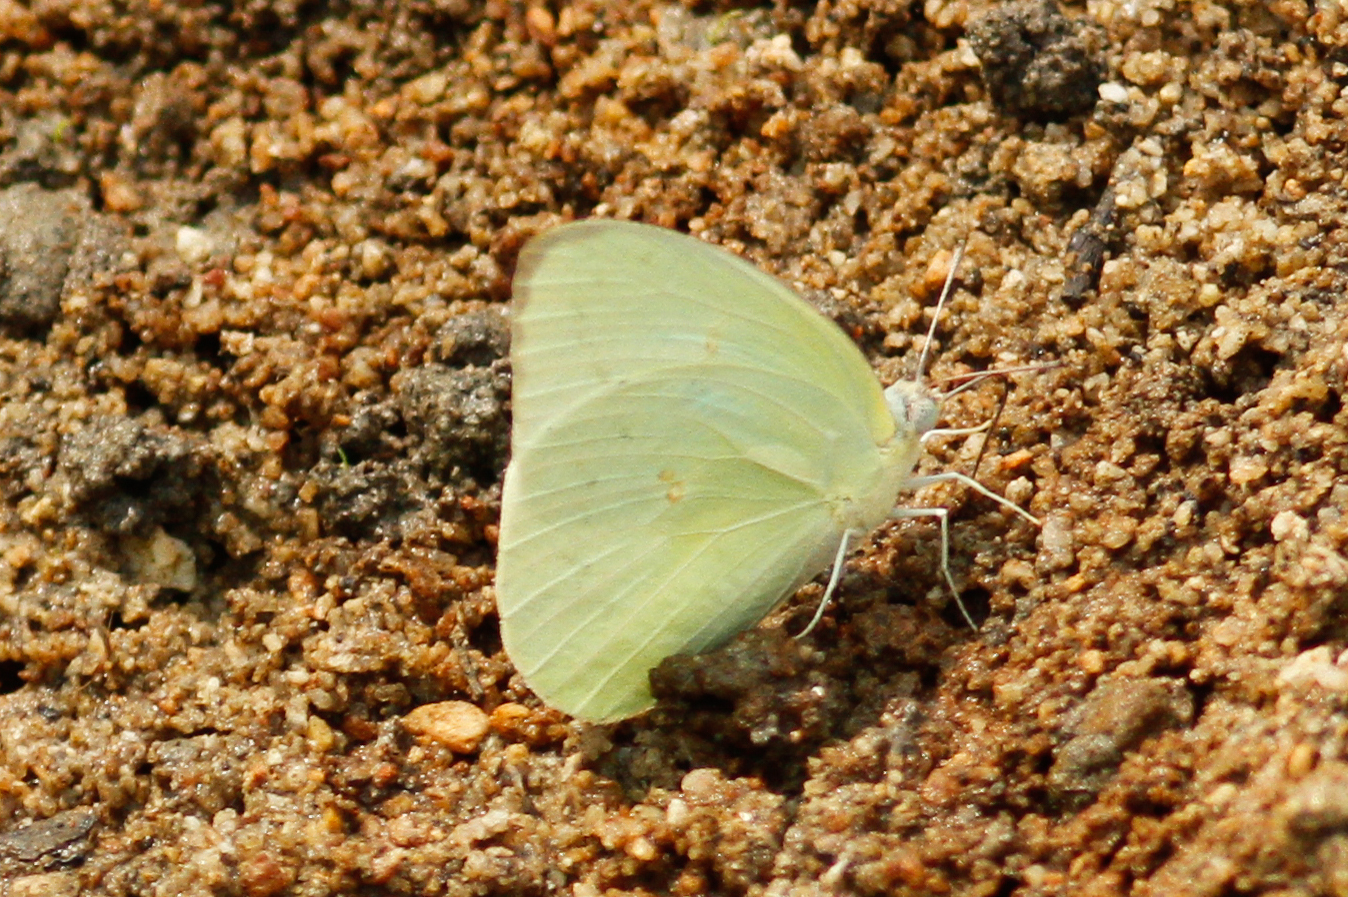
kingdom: Animalia
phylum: Arthropoda
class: Insecta
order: Lepidoptera
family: Pieridae
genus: Catopsilia
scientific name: Catopsilia pomona
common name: Common emigrant
